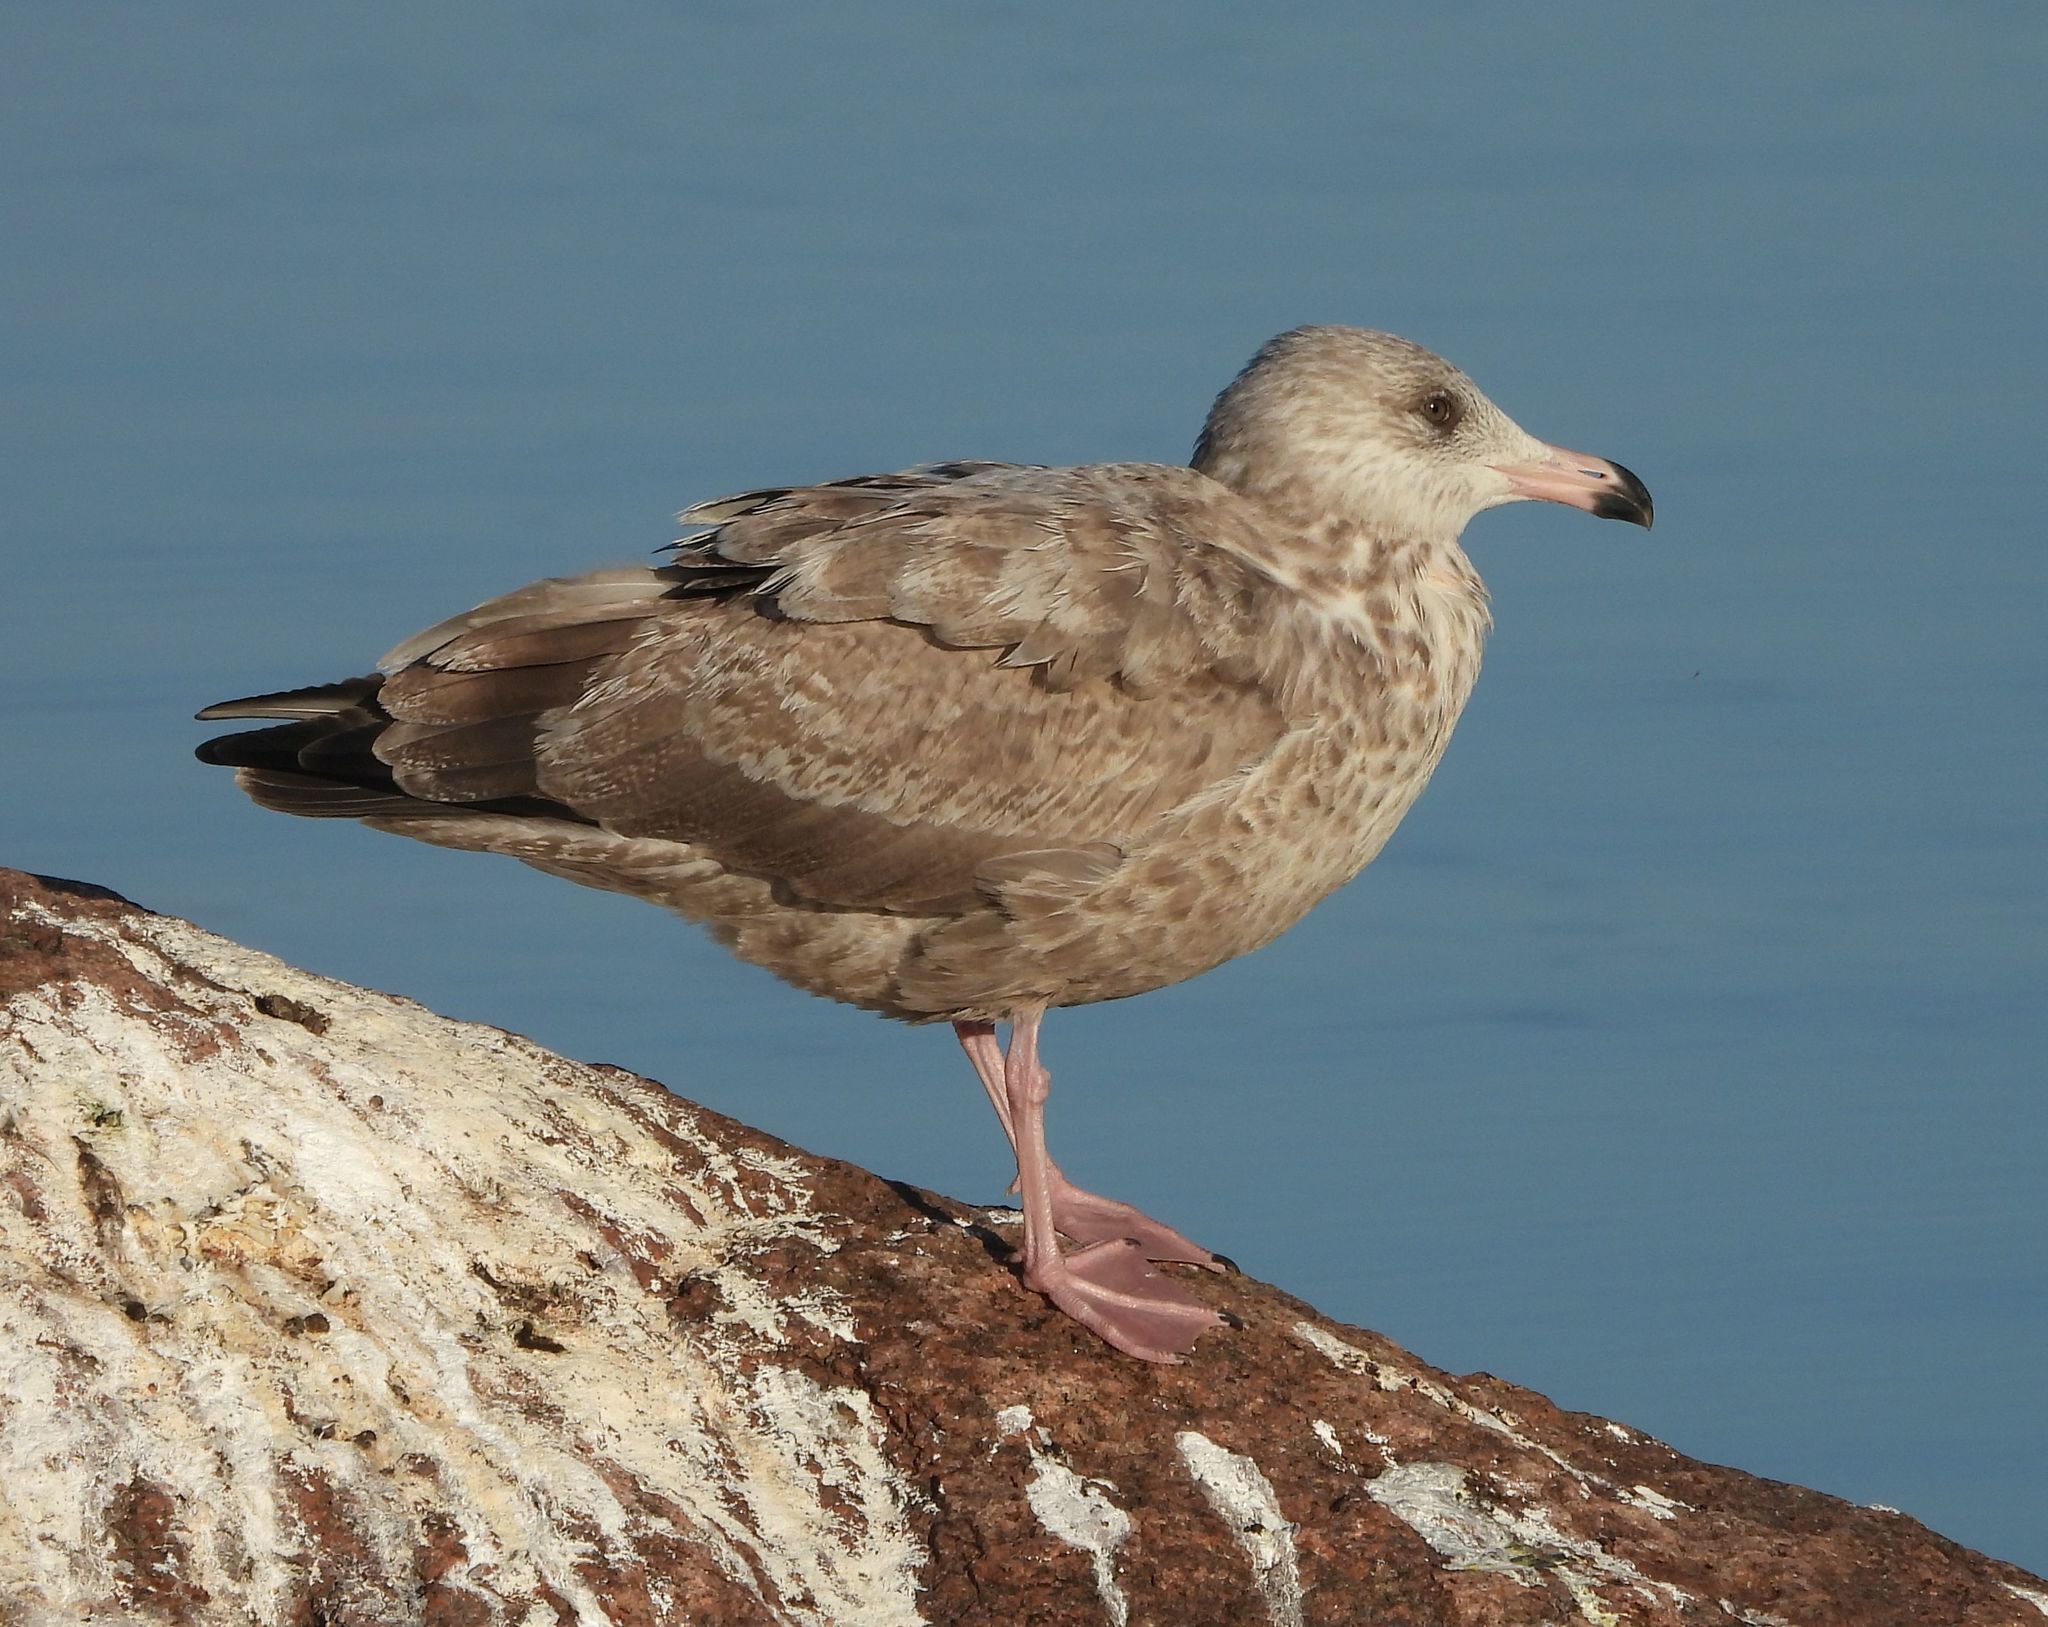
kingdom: Animalia
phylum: Chordata
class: Aves
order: Charadriiformes
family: Laridae
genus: Larus
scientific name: Larus argentatus
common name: Herring gull
